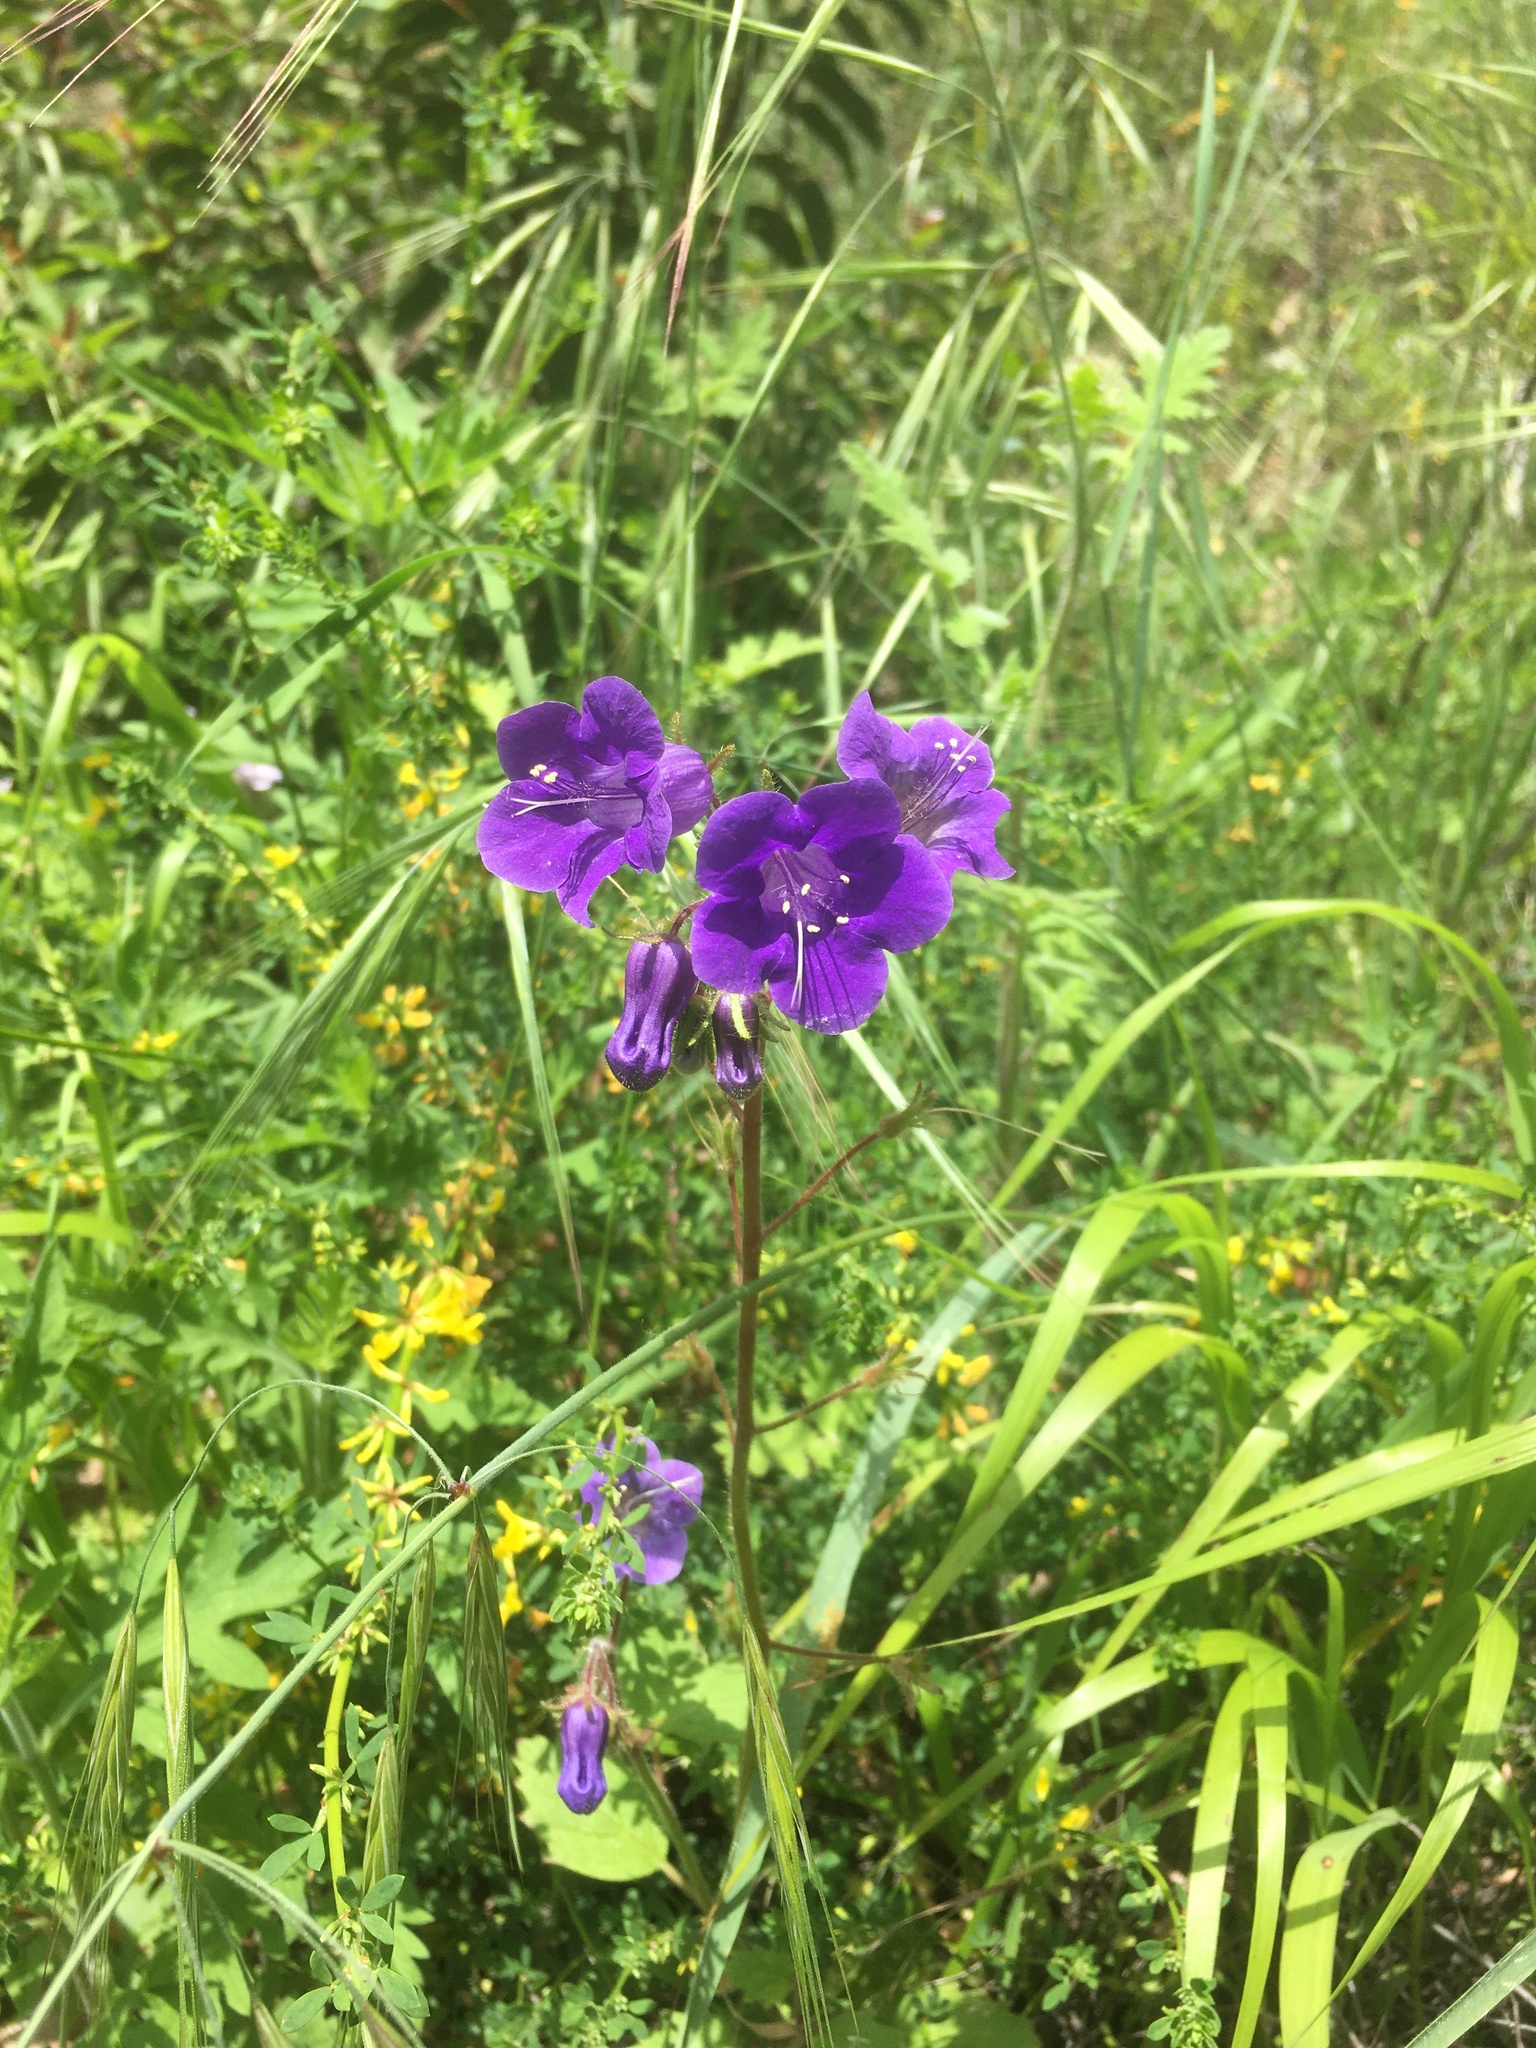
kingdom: Plantae
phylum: Tracheophyta
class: Magnoliopsida
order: Boraginales
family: Hydrophyllaceae
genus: Phacelia
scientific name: Phacelia minor
